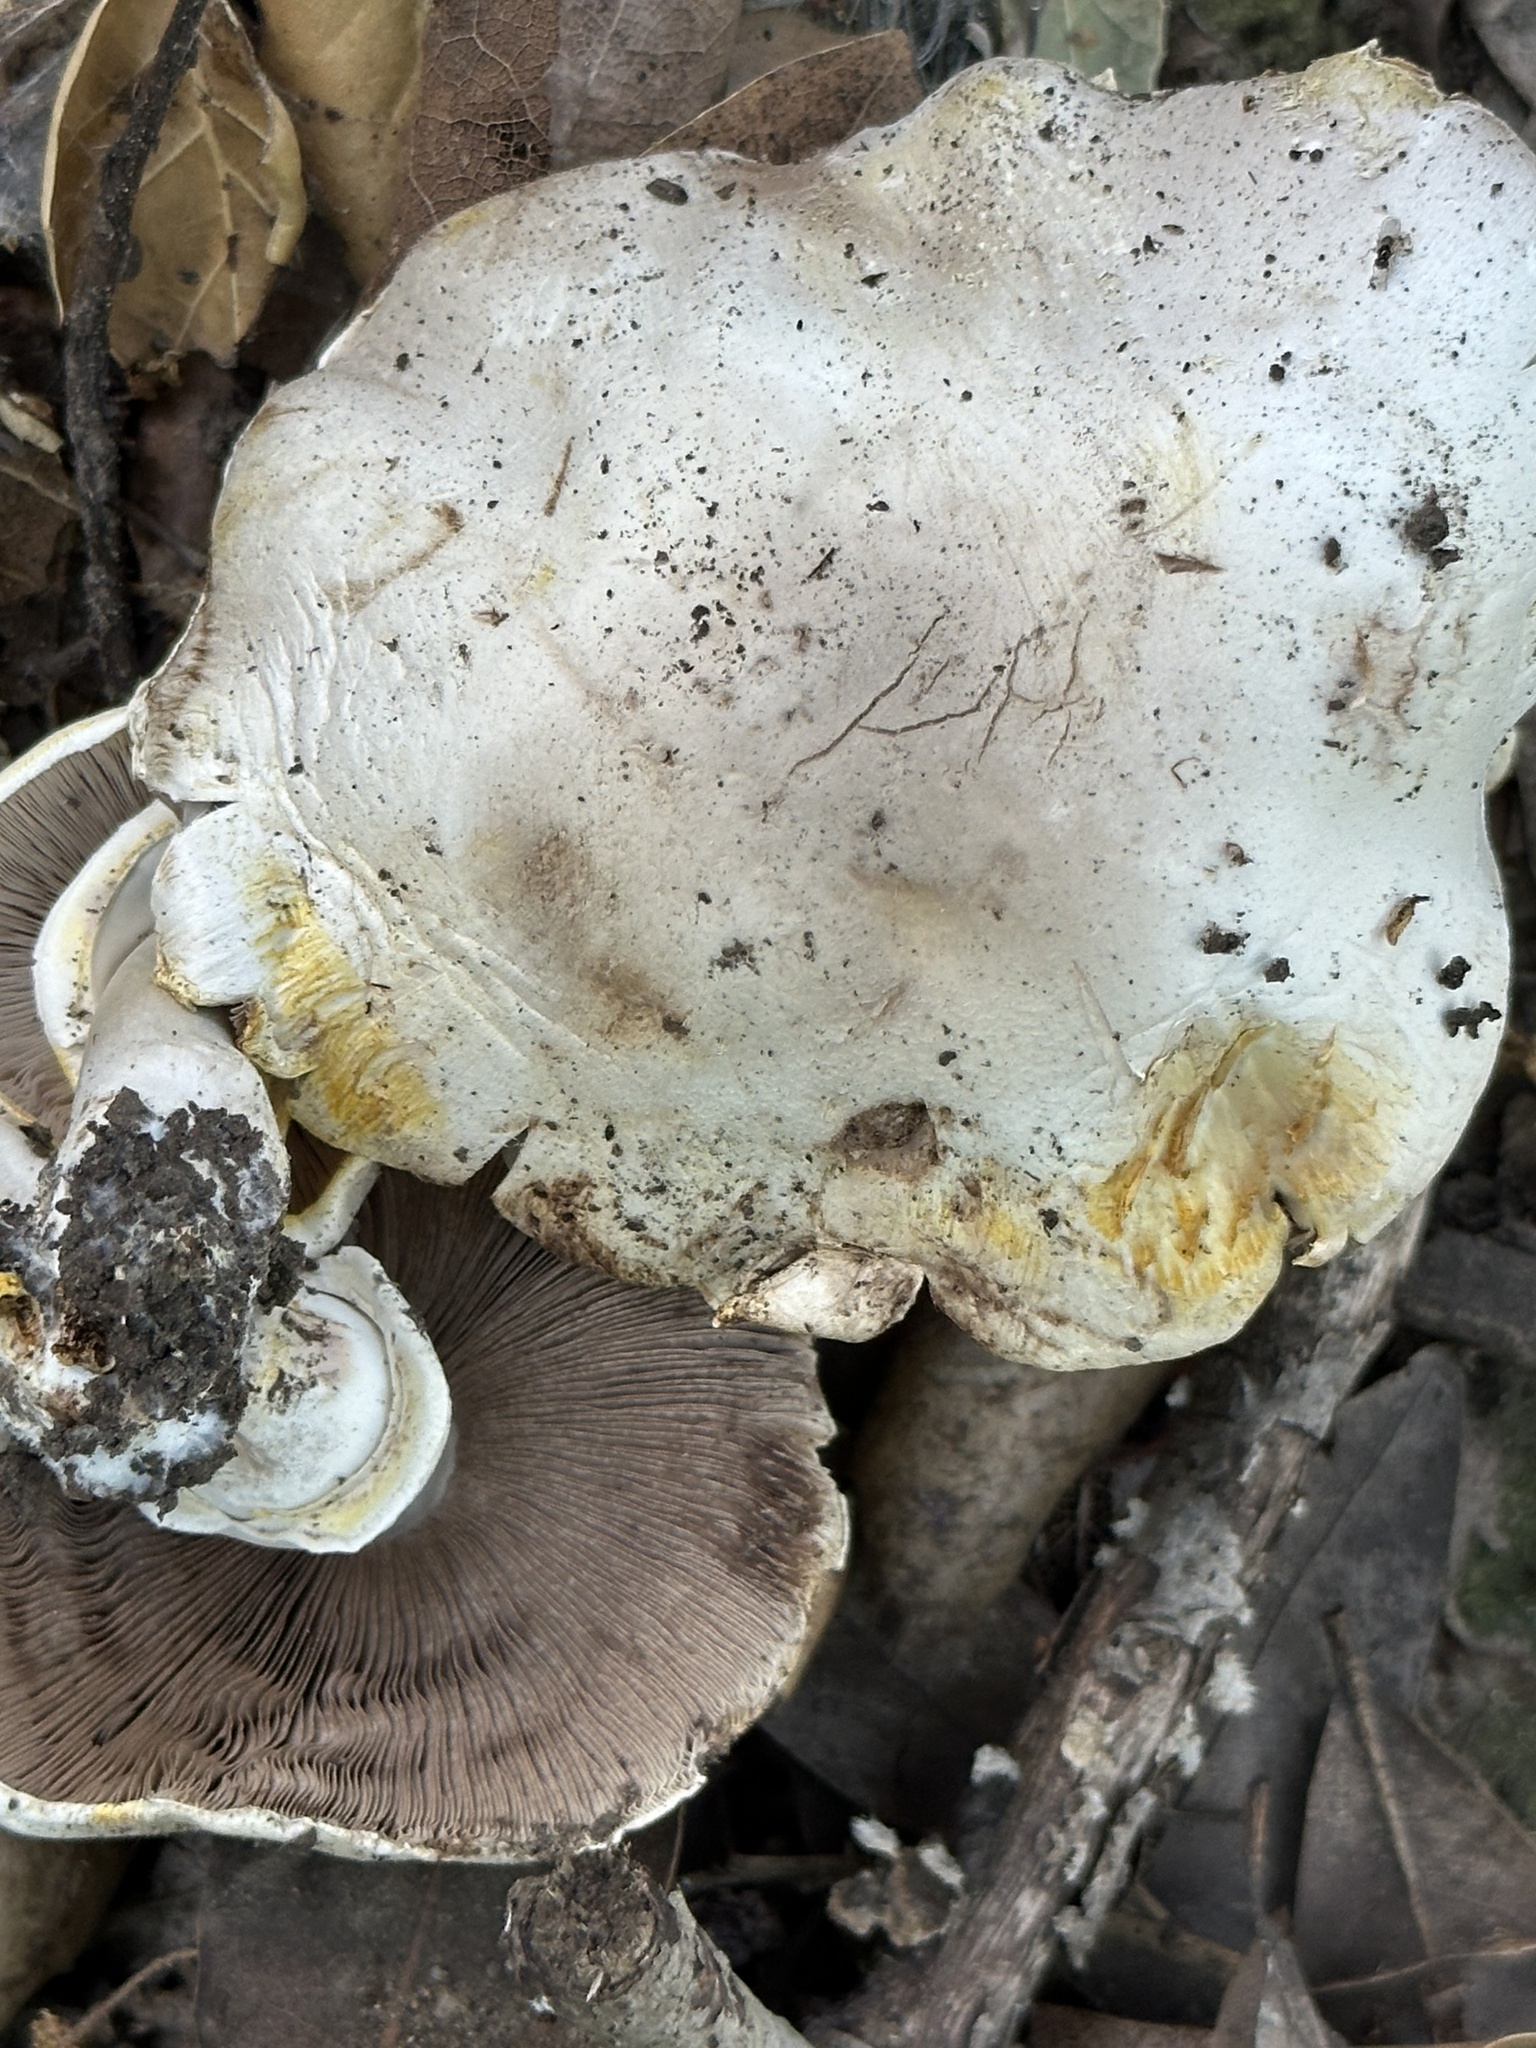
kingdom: Fungi
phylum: Basidiomycota
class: Agaricomycetes
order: Agaricales
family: Agaricaceae
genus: Agaricus
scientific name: Agaricus xanthodermus
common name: Yellow stainer
